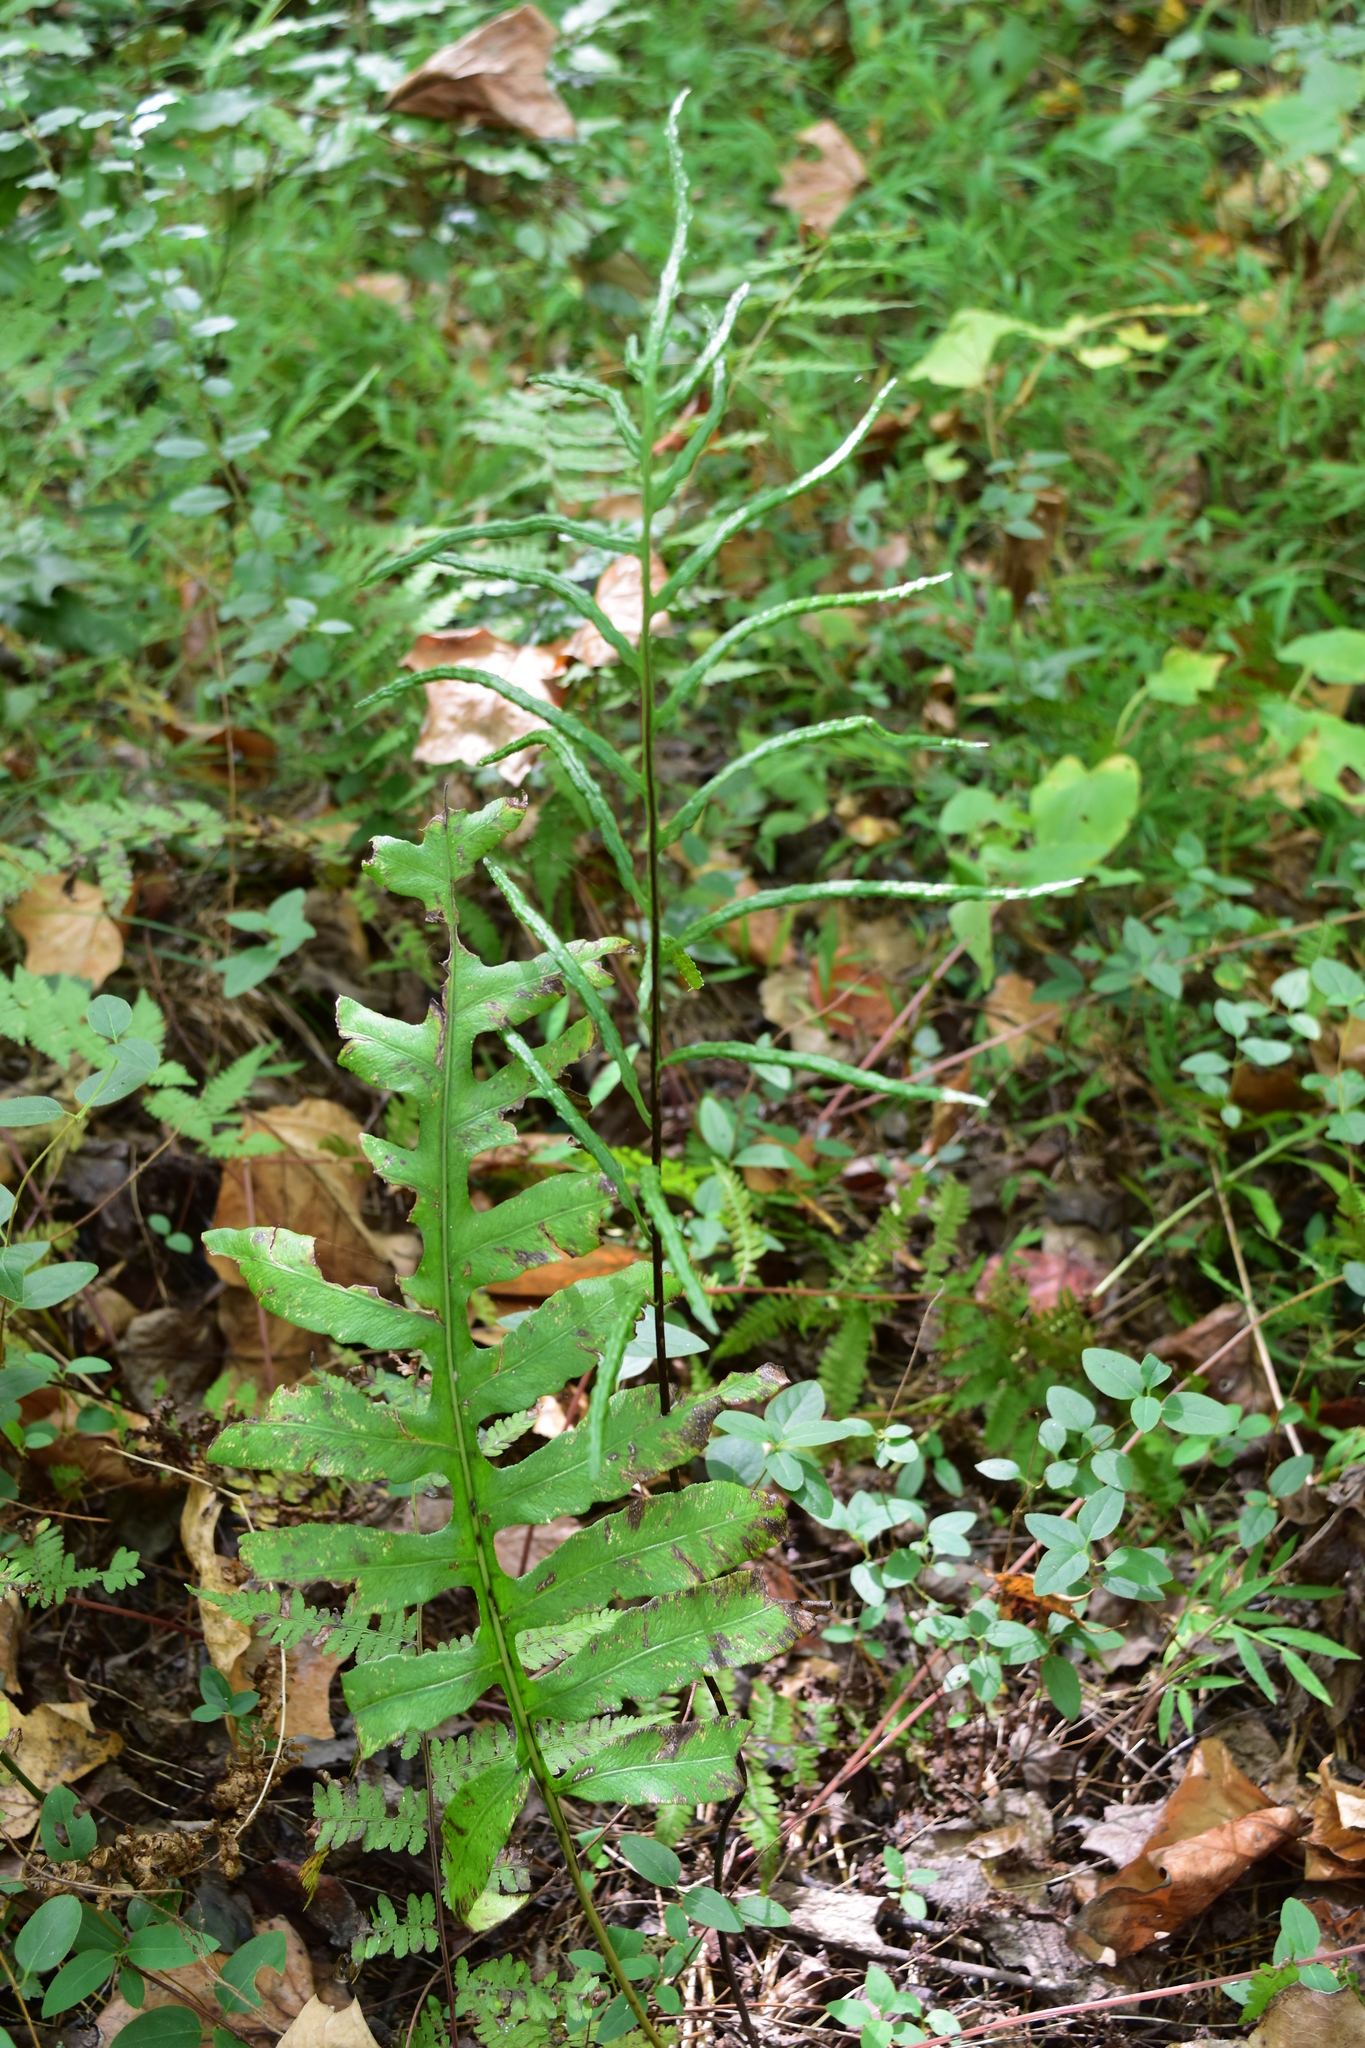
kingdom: Plantae
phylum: Tracheophyta
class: Polypodiopsida
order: Polypodiales
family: Blechnaceae
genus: Lorinseria
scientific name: Lorinseria areolata
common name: Dwarf chain fern
